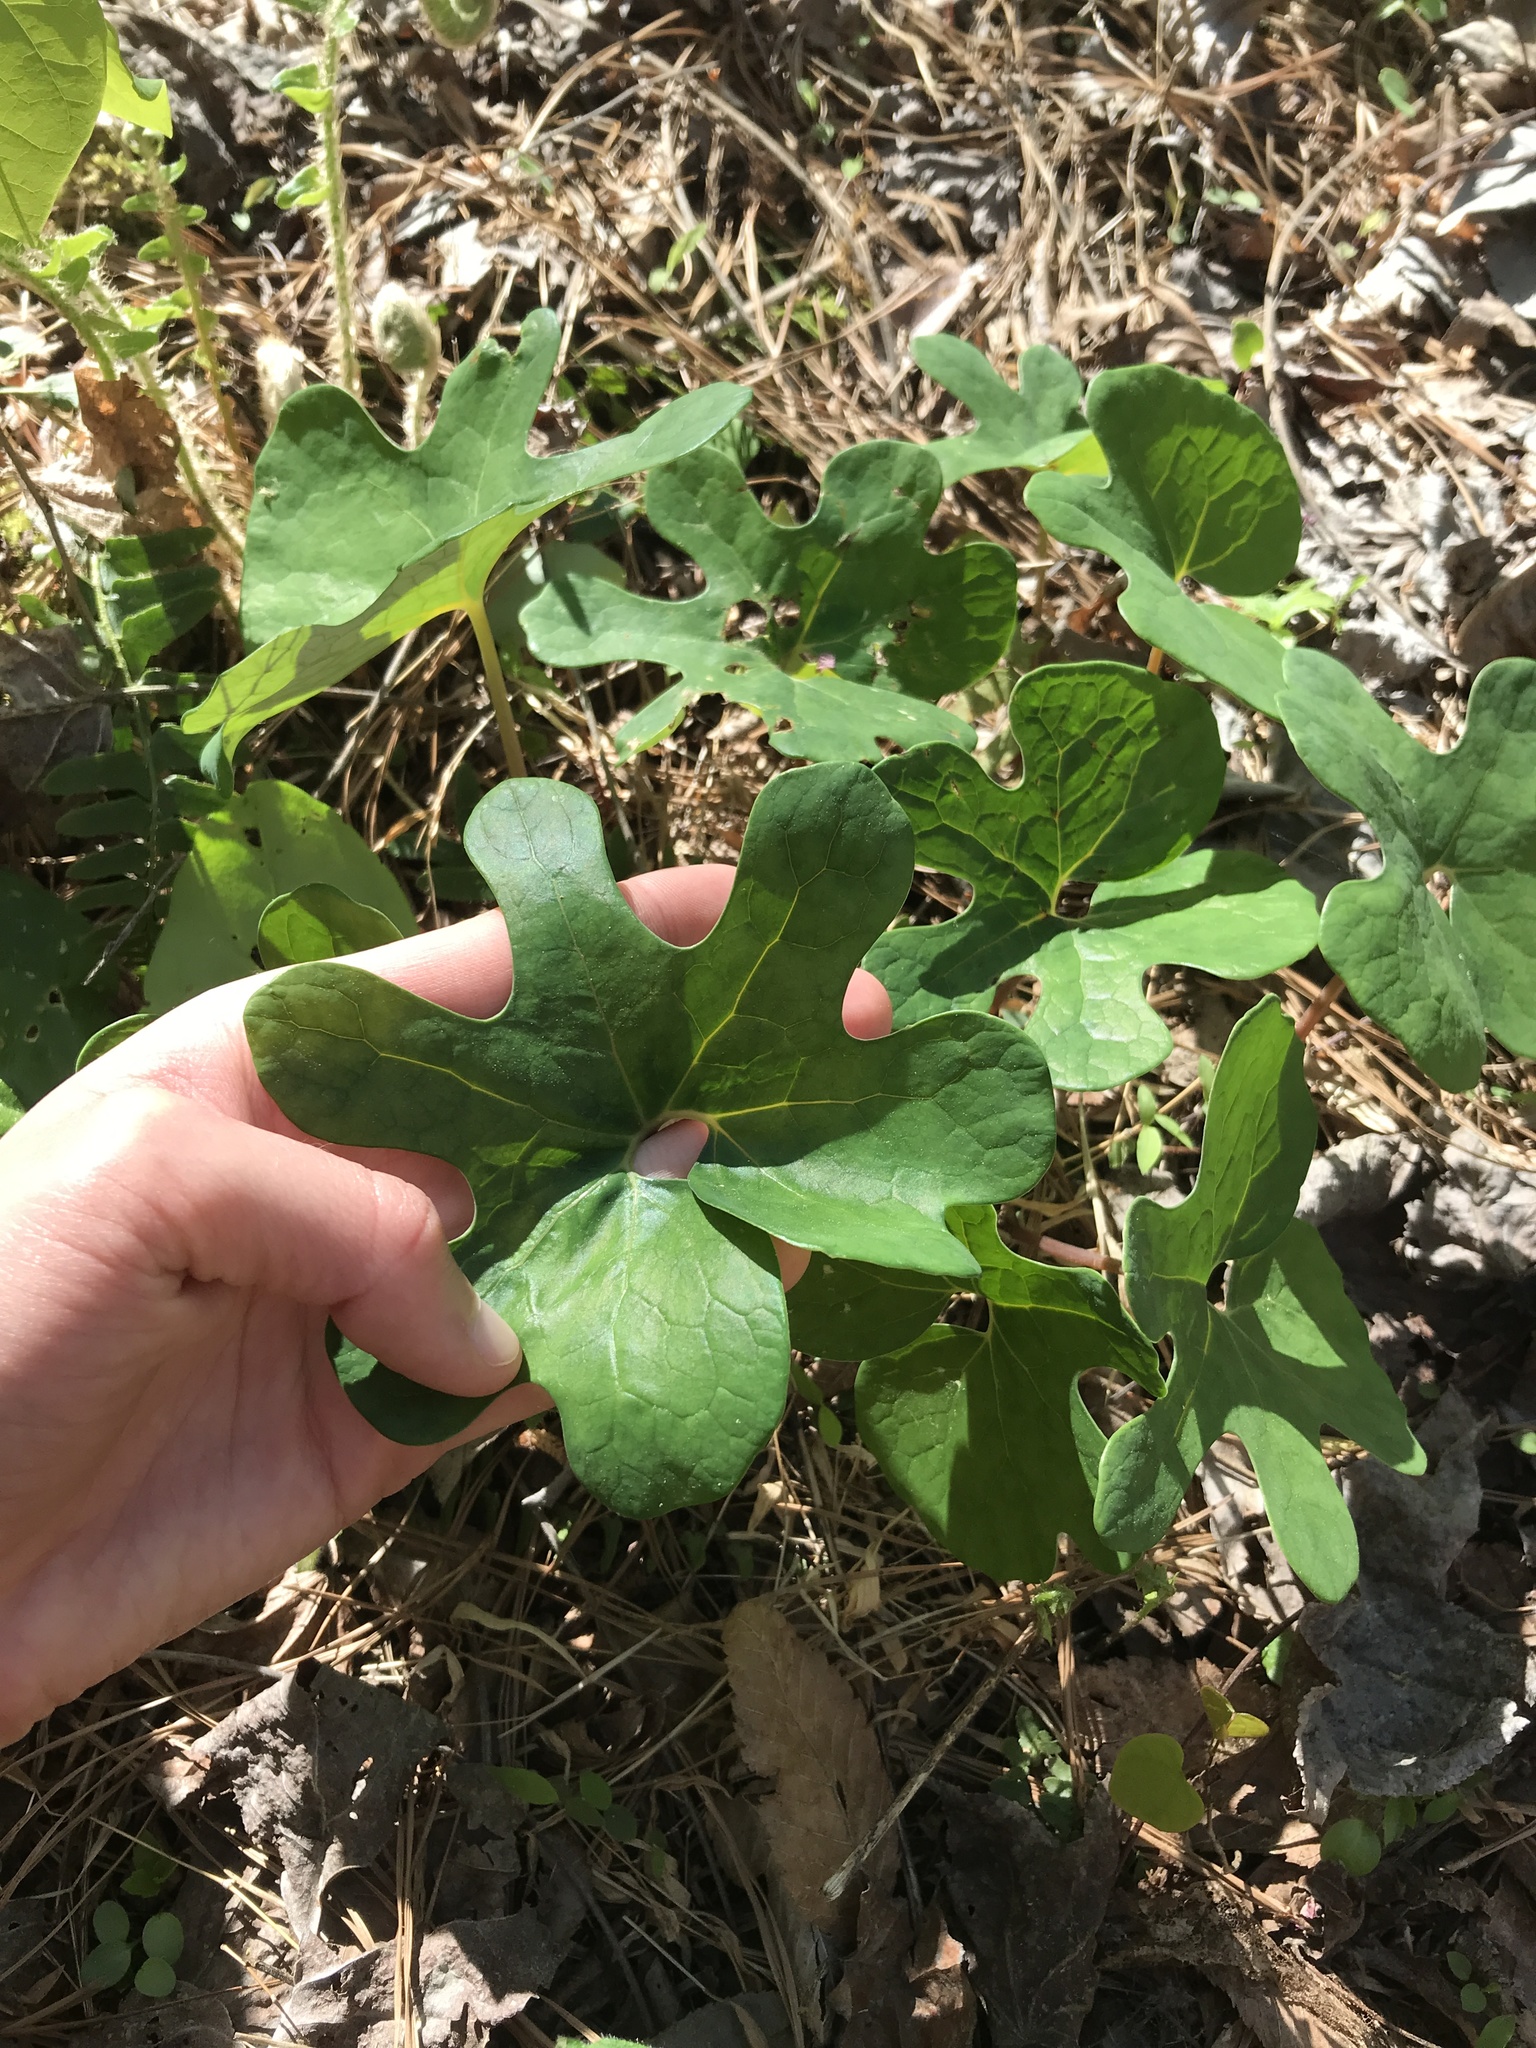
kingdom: Plantae
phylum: Tracheophyta
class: Magnoliopsida
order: Ranunculales
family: Papaveraceae
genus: Sanguinaria
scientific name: Sanguinaria canadensis
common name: Bloodroot
